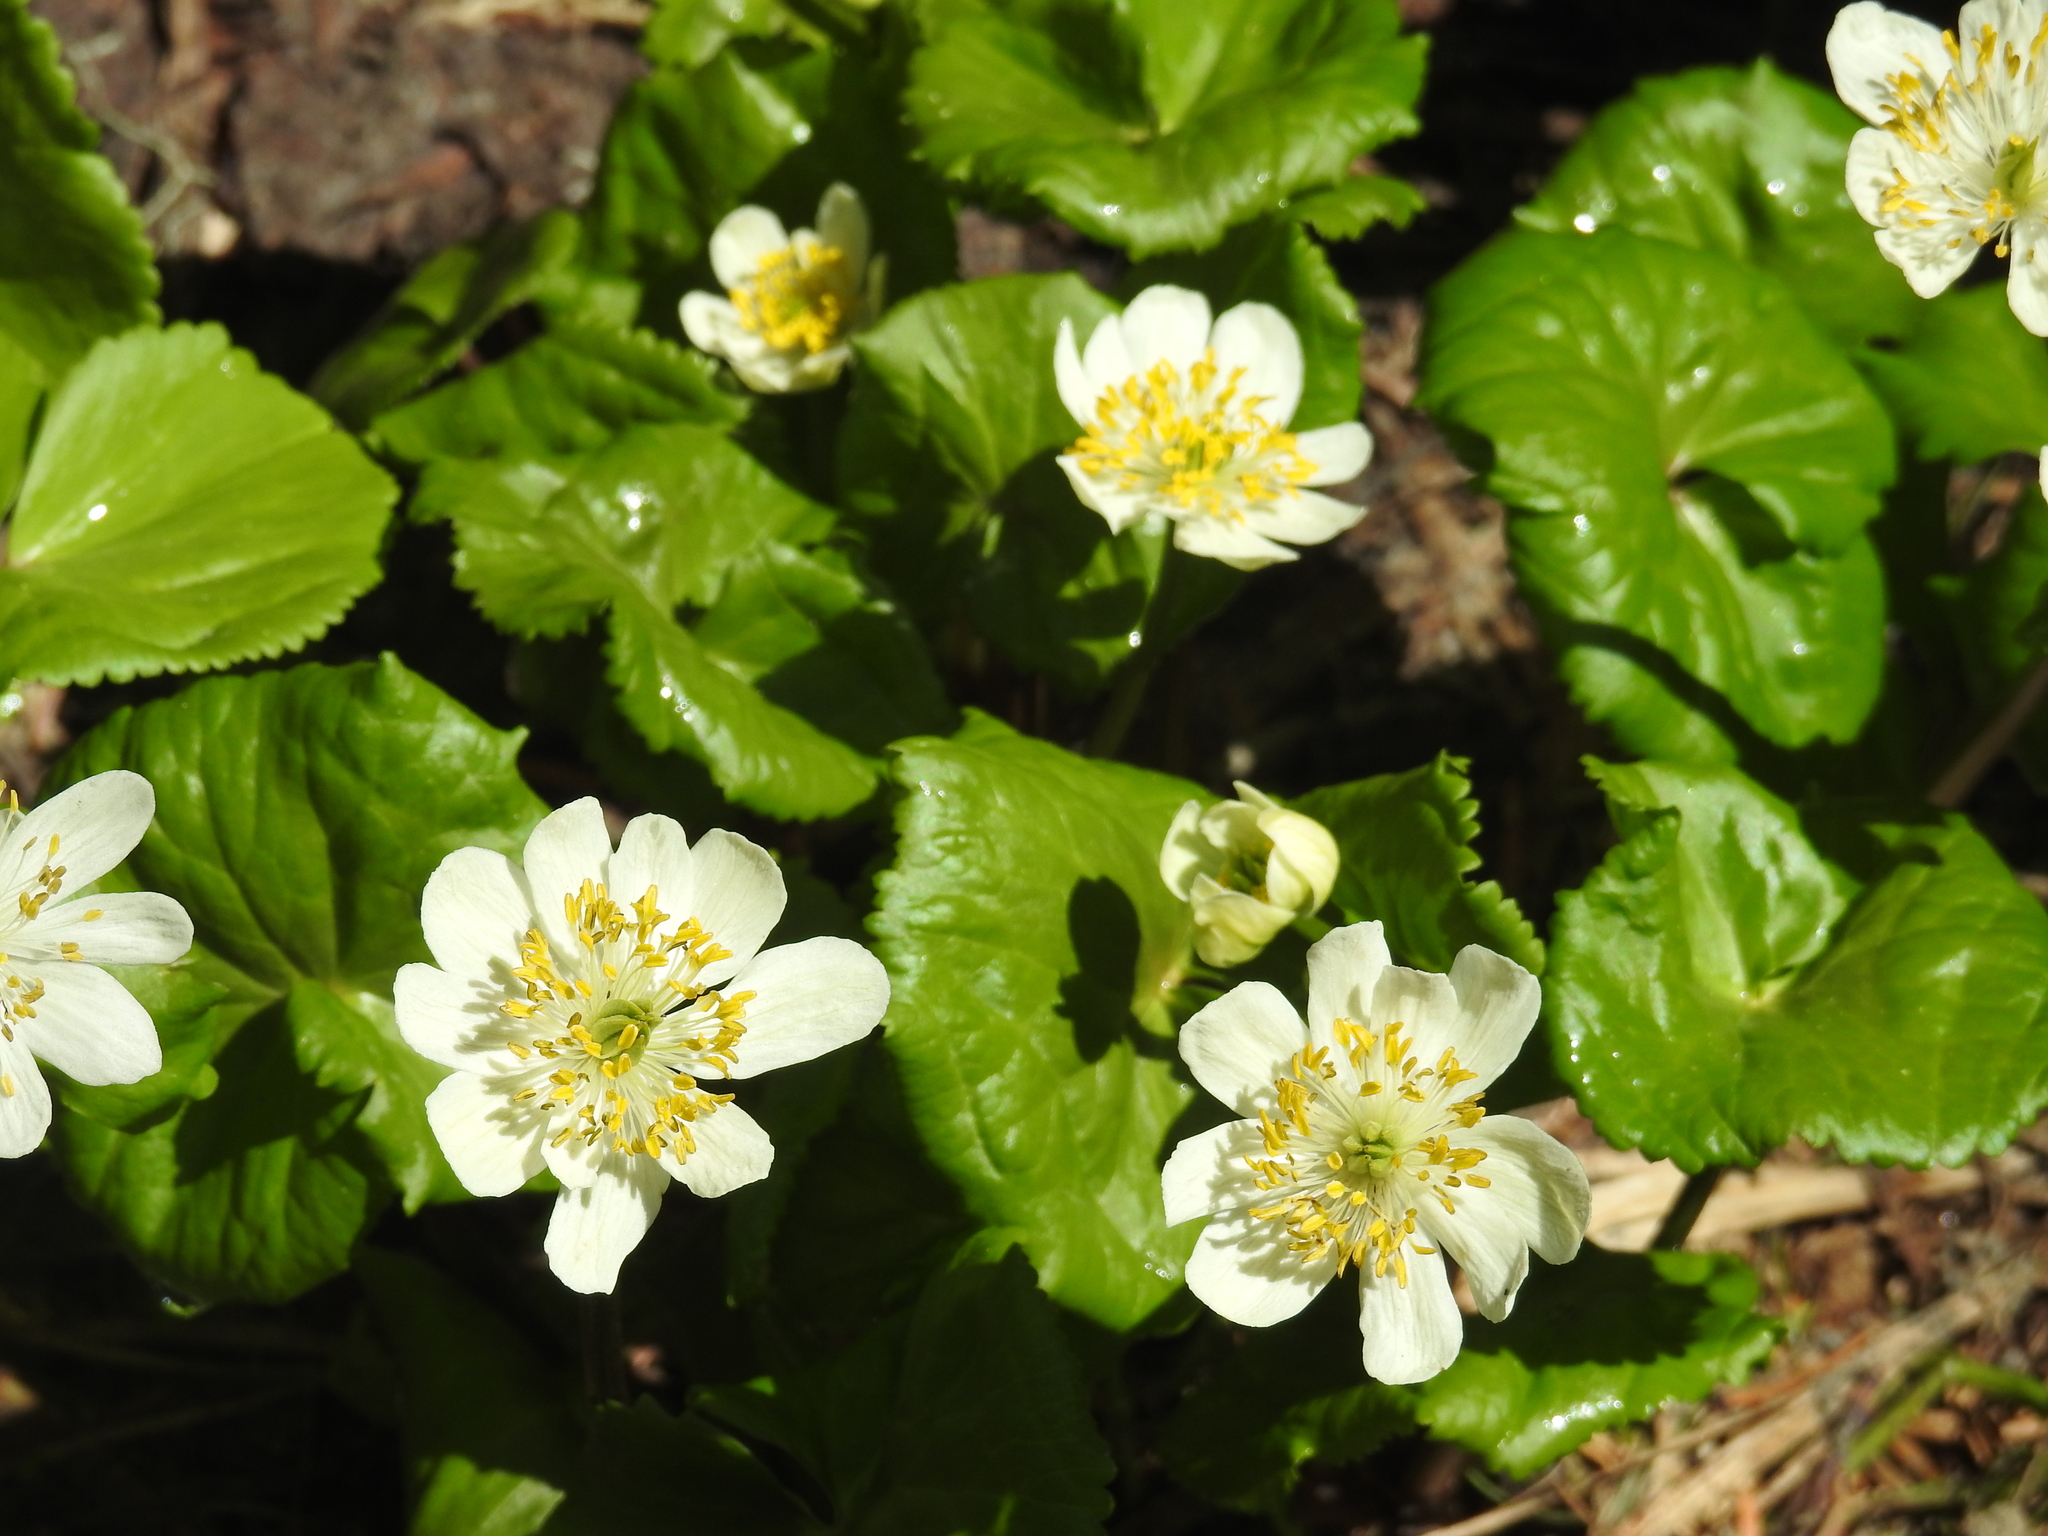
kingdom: Plantae
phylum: Tracheophyta
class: Magnoliopsida
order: Ranunculales
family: Ranunculaceae
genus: Caltha
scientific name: Caltha leptosepala
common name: Elkslip
